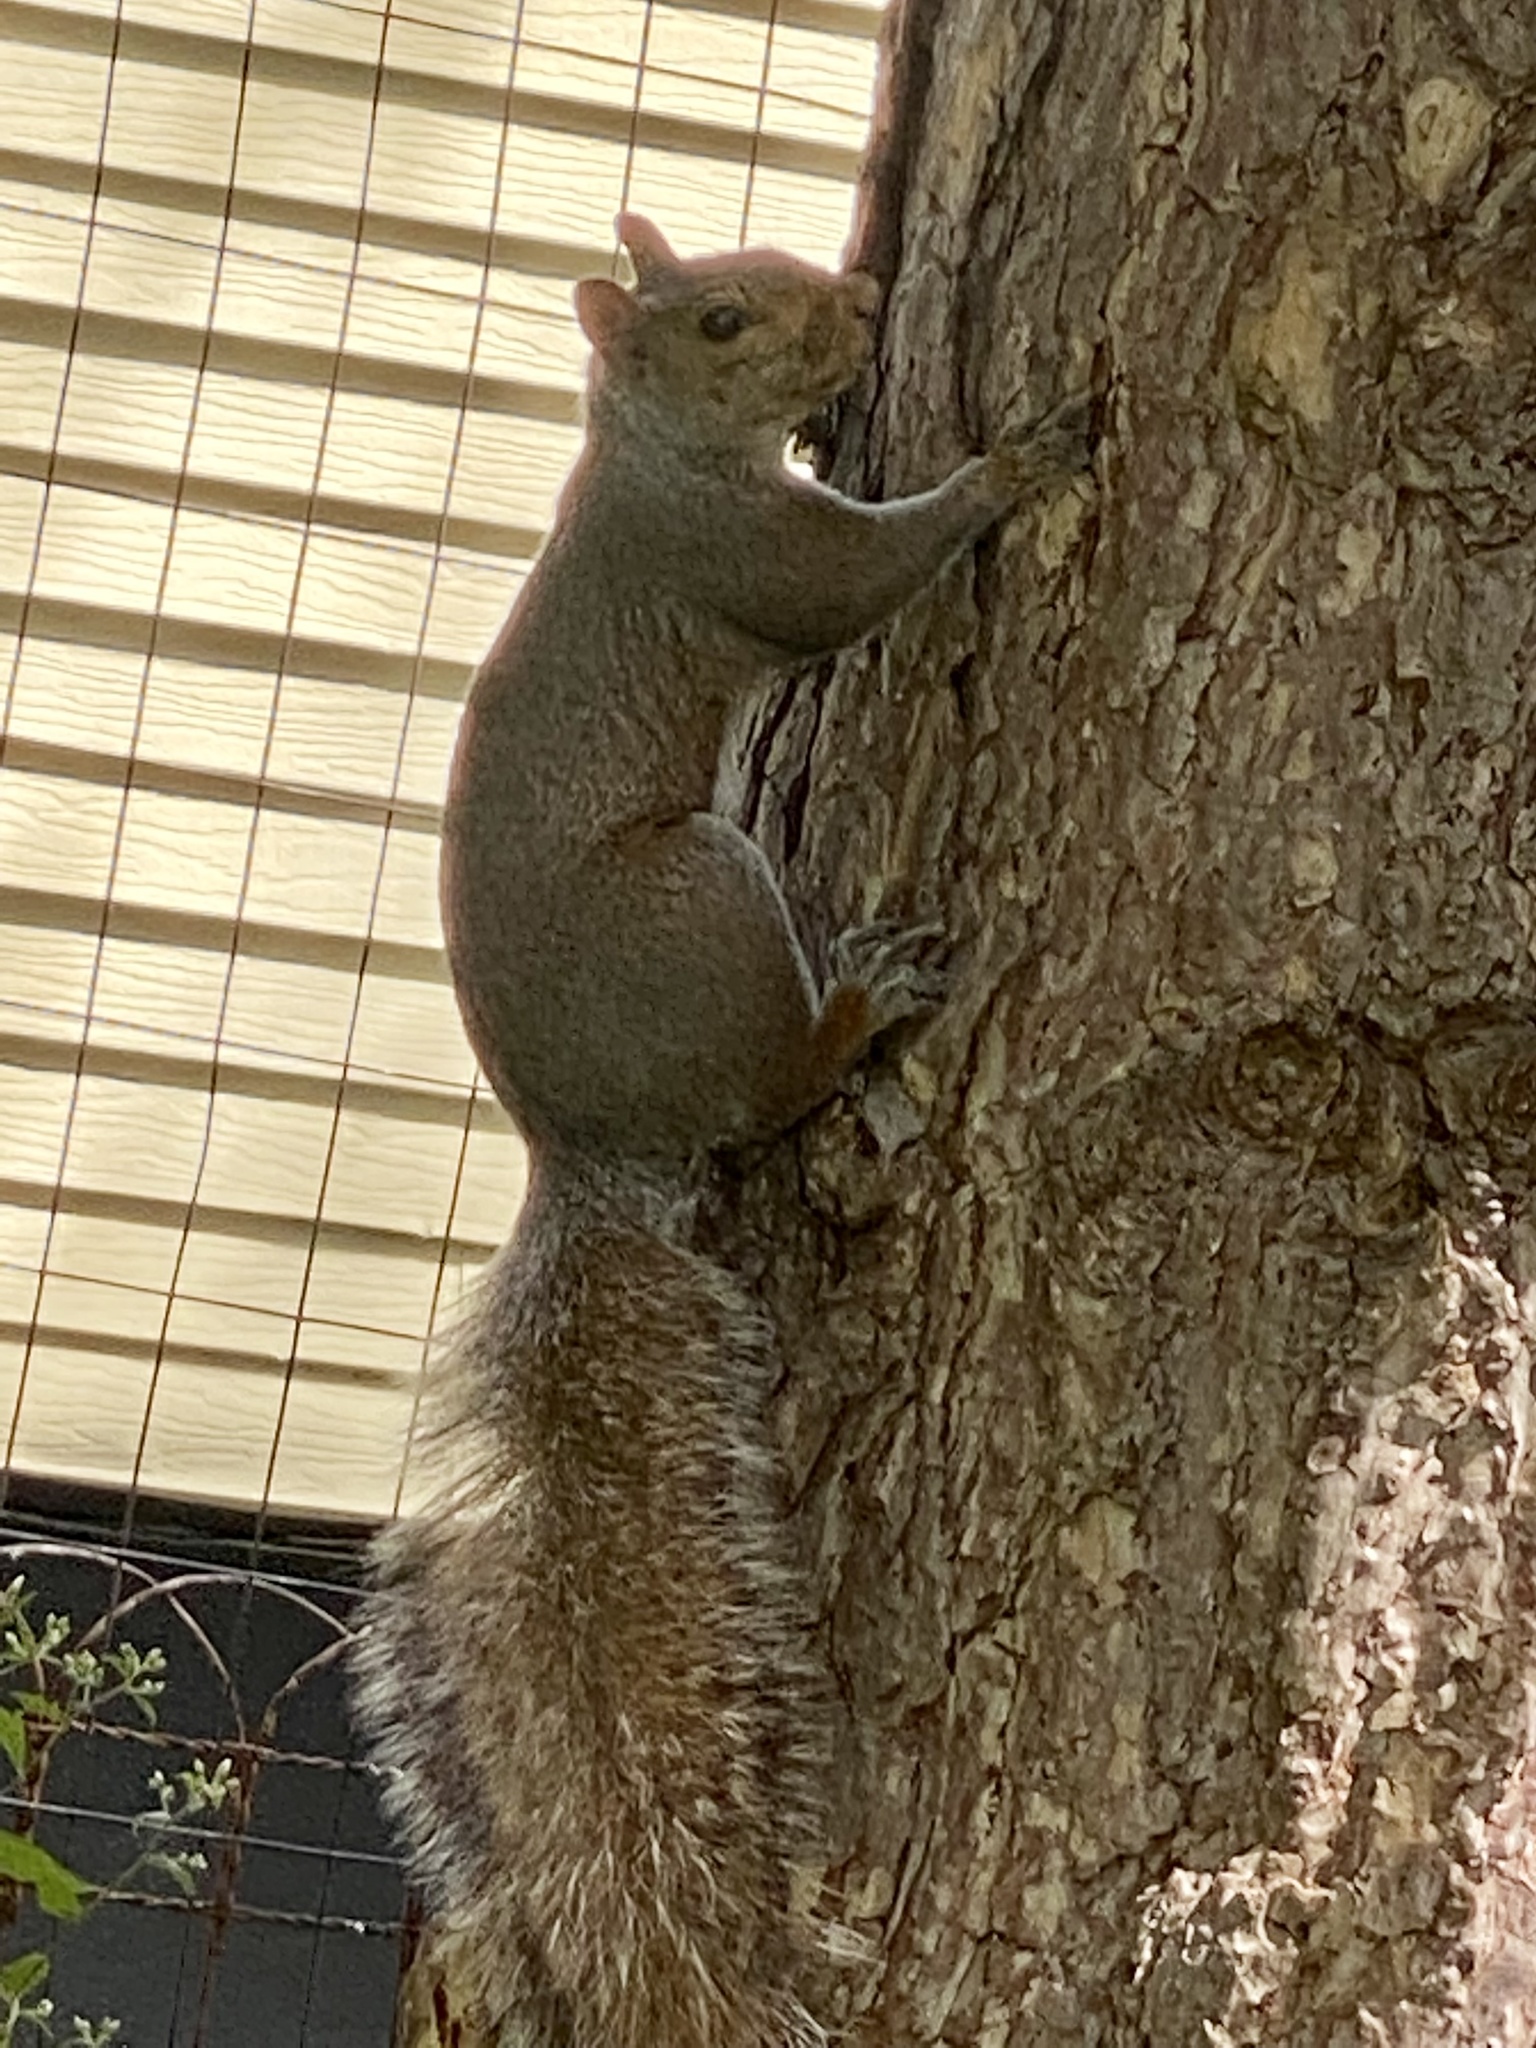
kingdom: Animalia
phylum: Chordata
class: Mammalia
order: Rodentia
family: Sciuridae
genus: Sciurus
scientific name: Sciurus carolinensis
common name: Eastern gray squirrel
